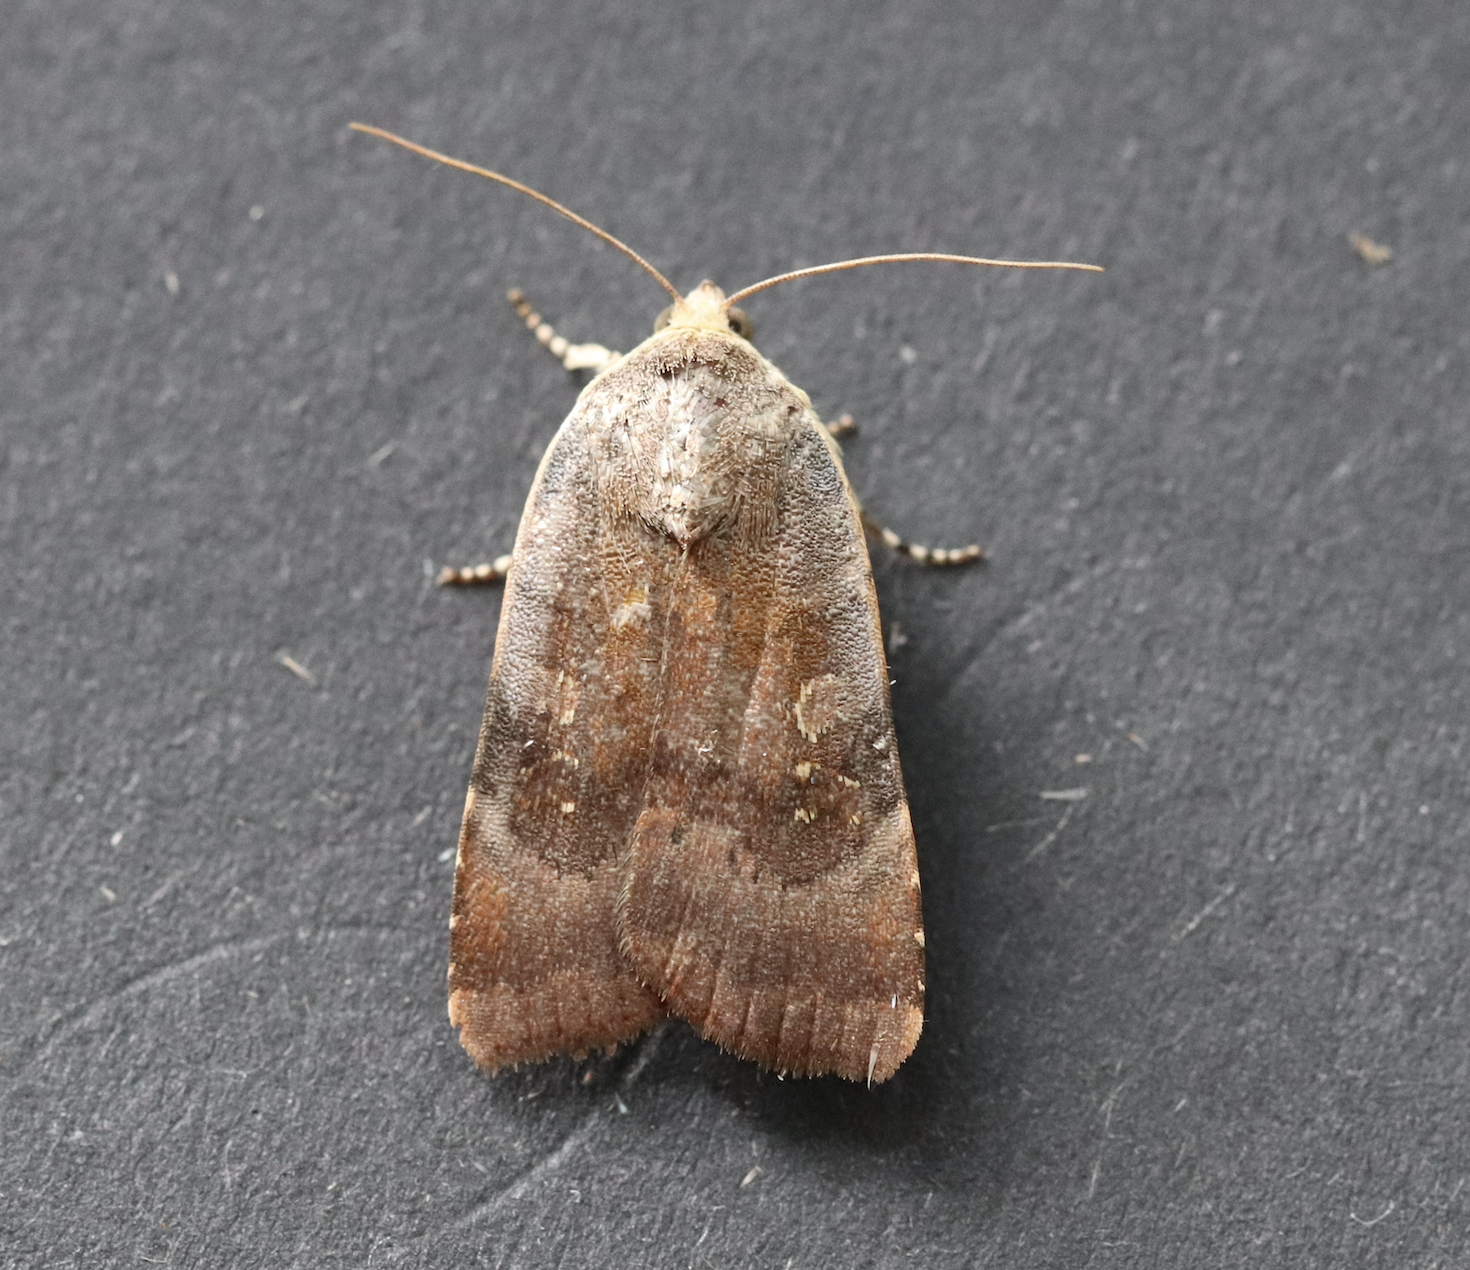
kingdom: Animalia
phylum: Arthropoda
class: Insecta
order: Lepidoptera
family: Noctuidae
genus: Noctua
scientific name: Noctua janthe
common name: Lesser broad-bordered yellow underwing
